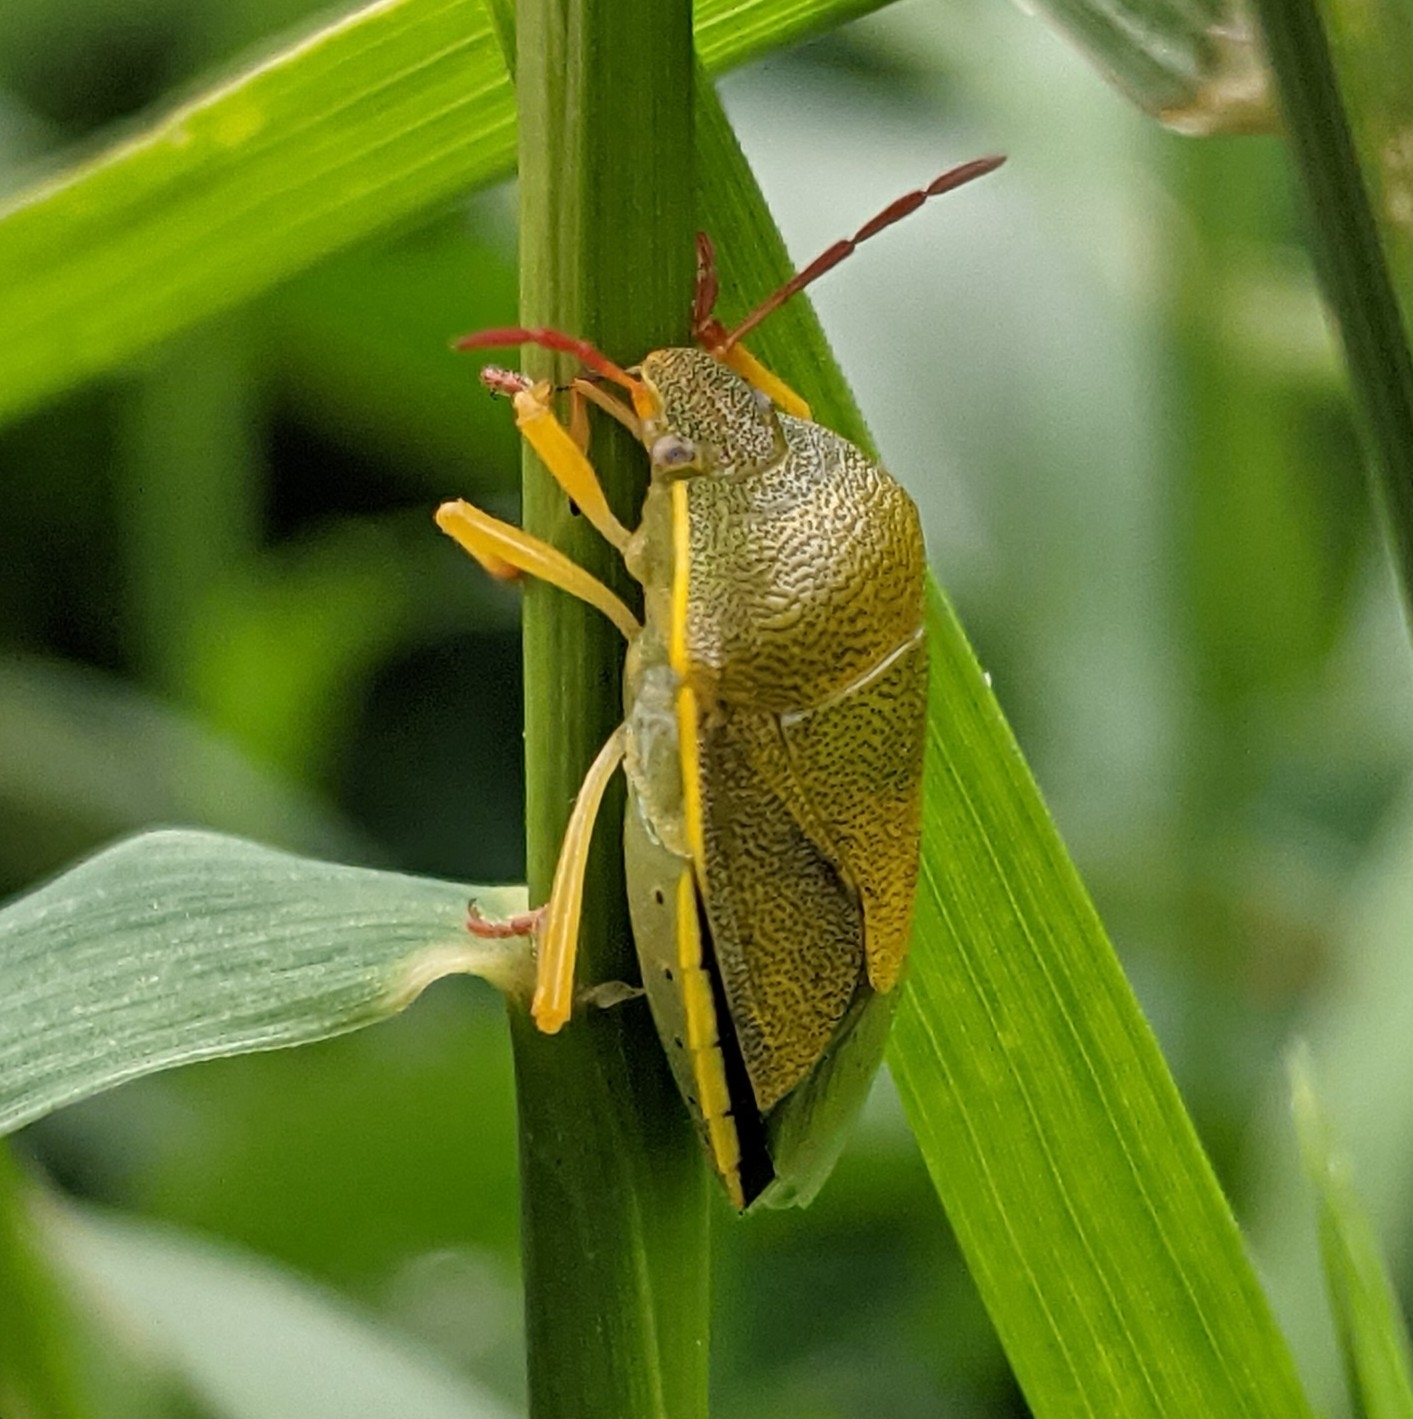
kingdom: Animalia
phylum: Arthropoda
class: Insecta
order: Hemiptera
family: Pentatomidae
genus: Piezodorus
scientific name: Piezodorus lituratus
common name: Stink bug
